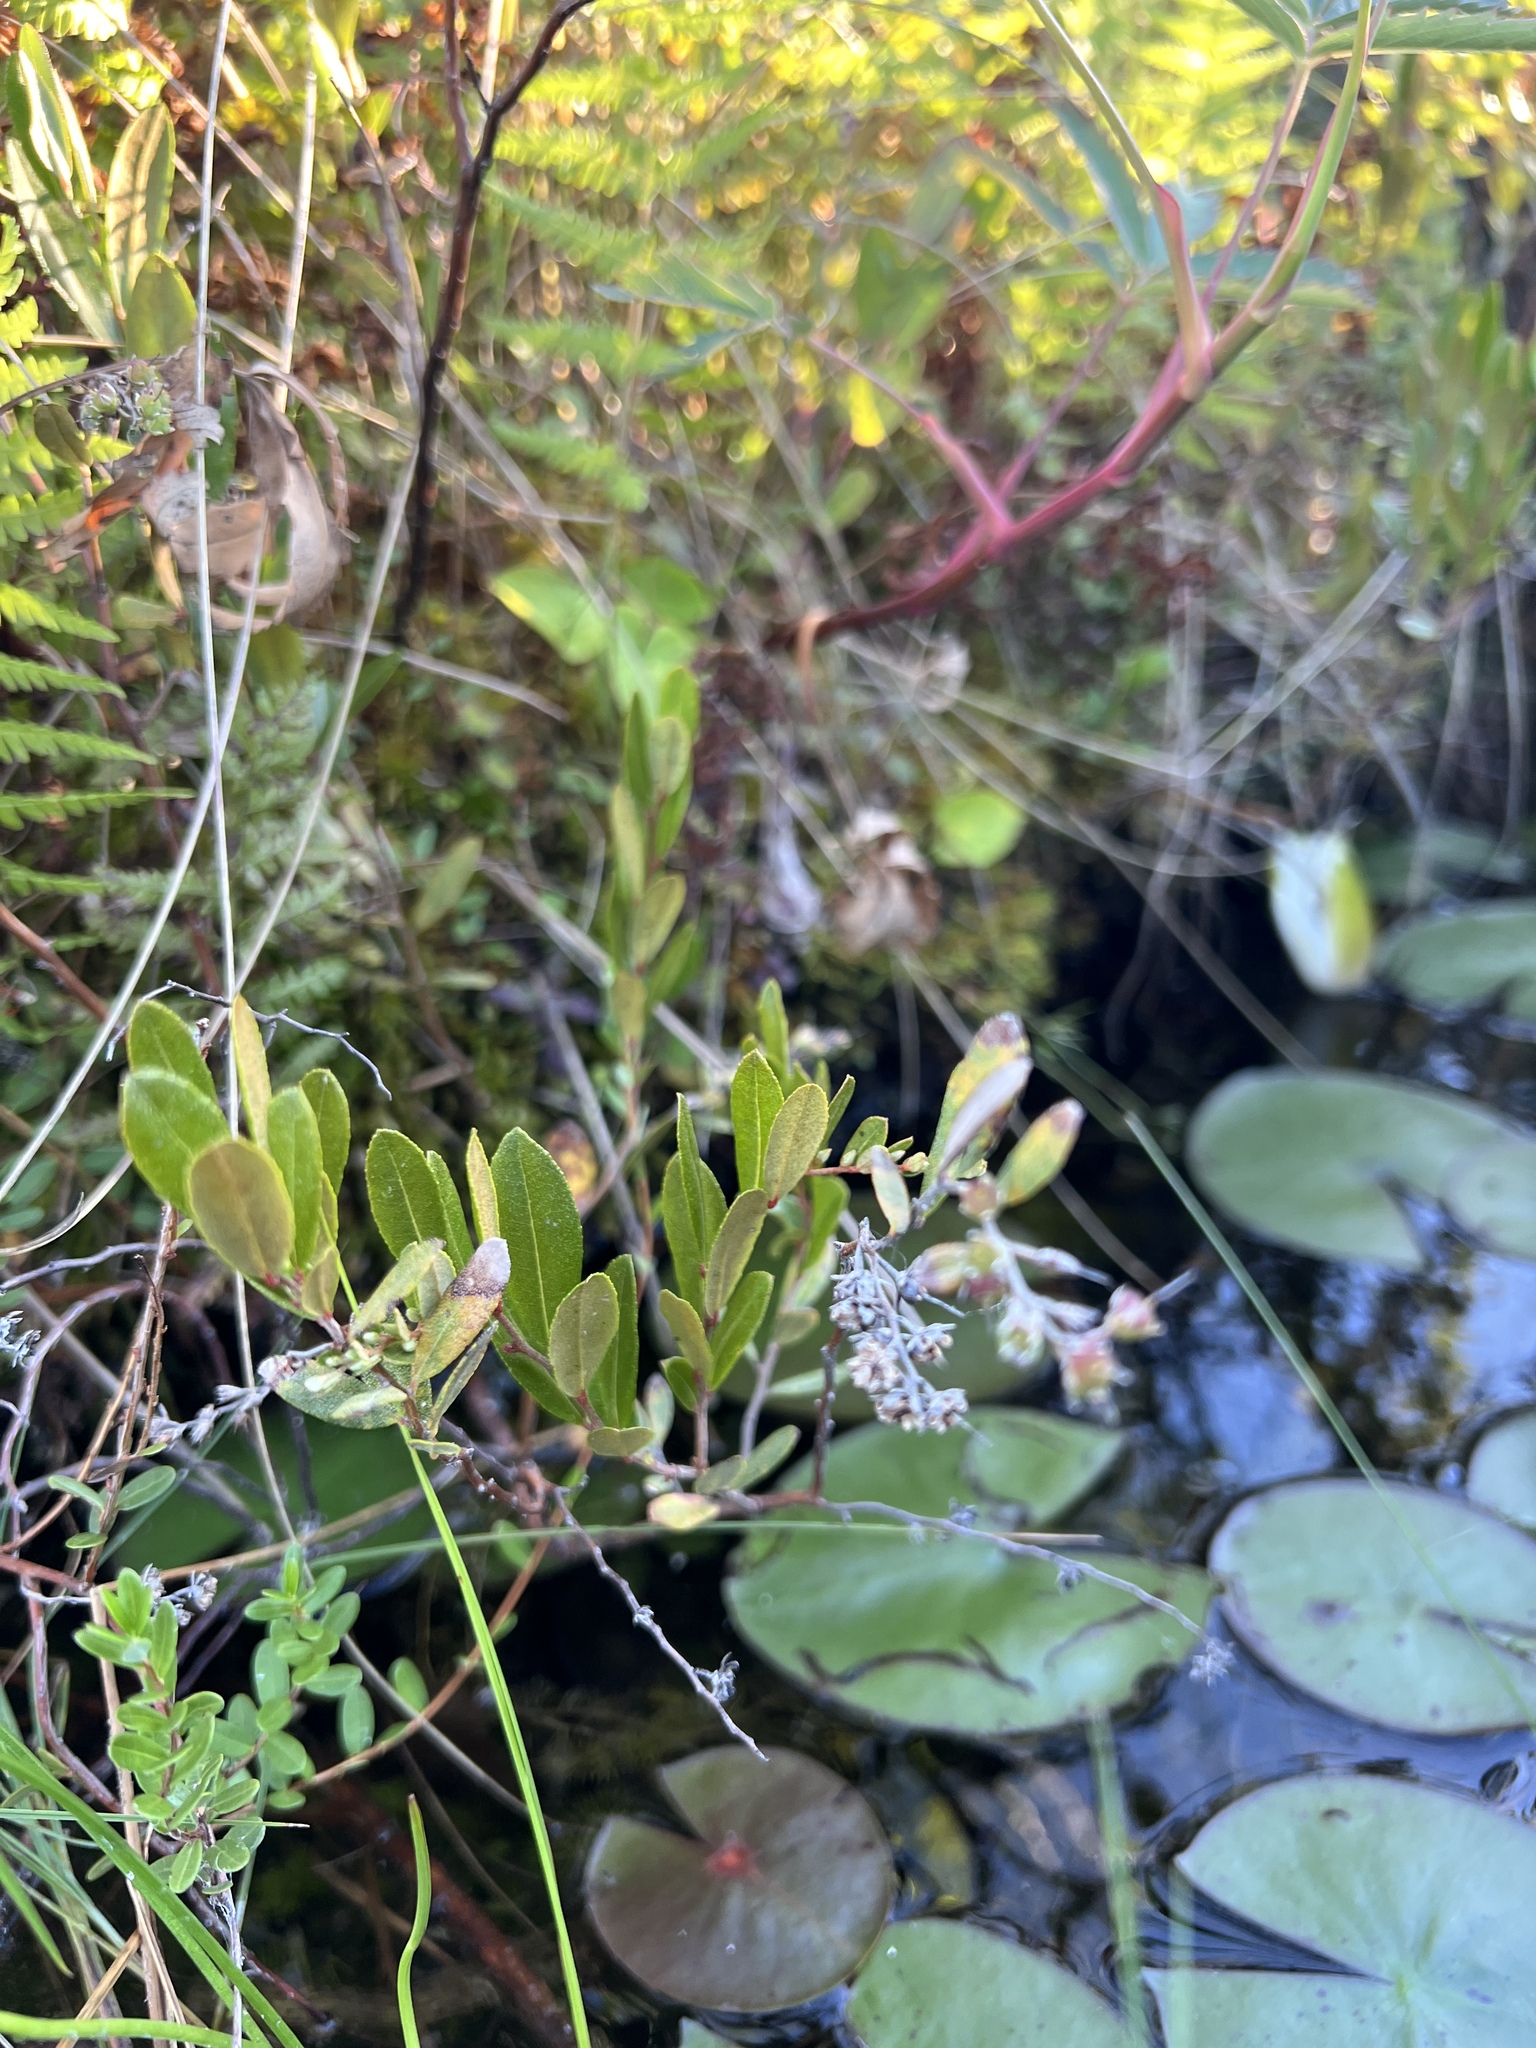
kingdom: Plantae
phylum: Tracheophyta
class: Magnoliopsida
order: Ericales
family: Ericaceae
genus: Chamaedaphne
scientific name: Chamaedaphne calyculata
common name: Leatherleaf
